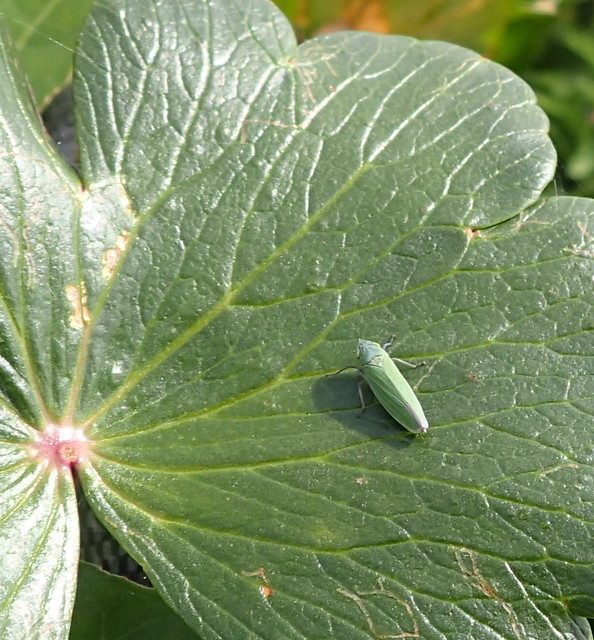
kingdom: Animalia
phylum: Arthropoda
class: Insecta
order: Hemiptera
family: Cicadellidae
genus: Draeculacephala
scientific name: Draeculacephala inscripta
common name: Leafhopper
